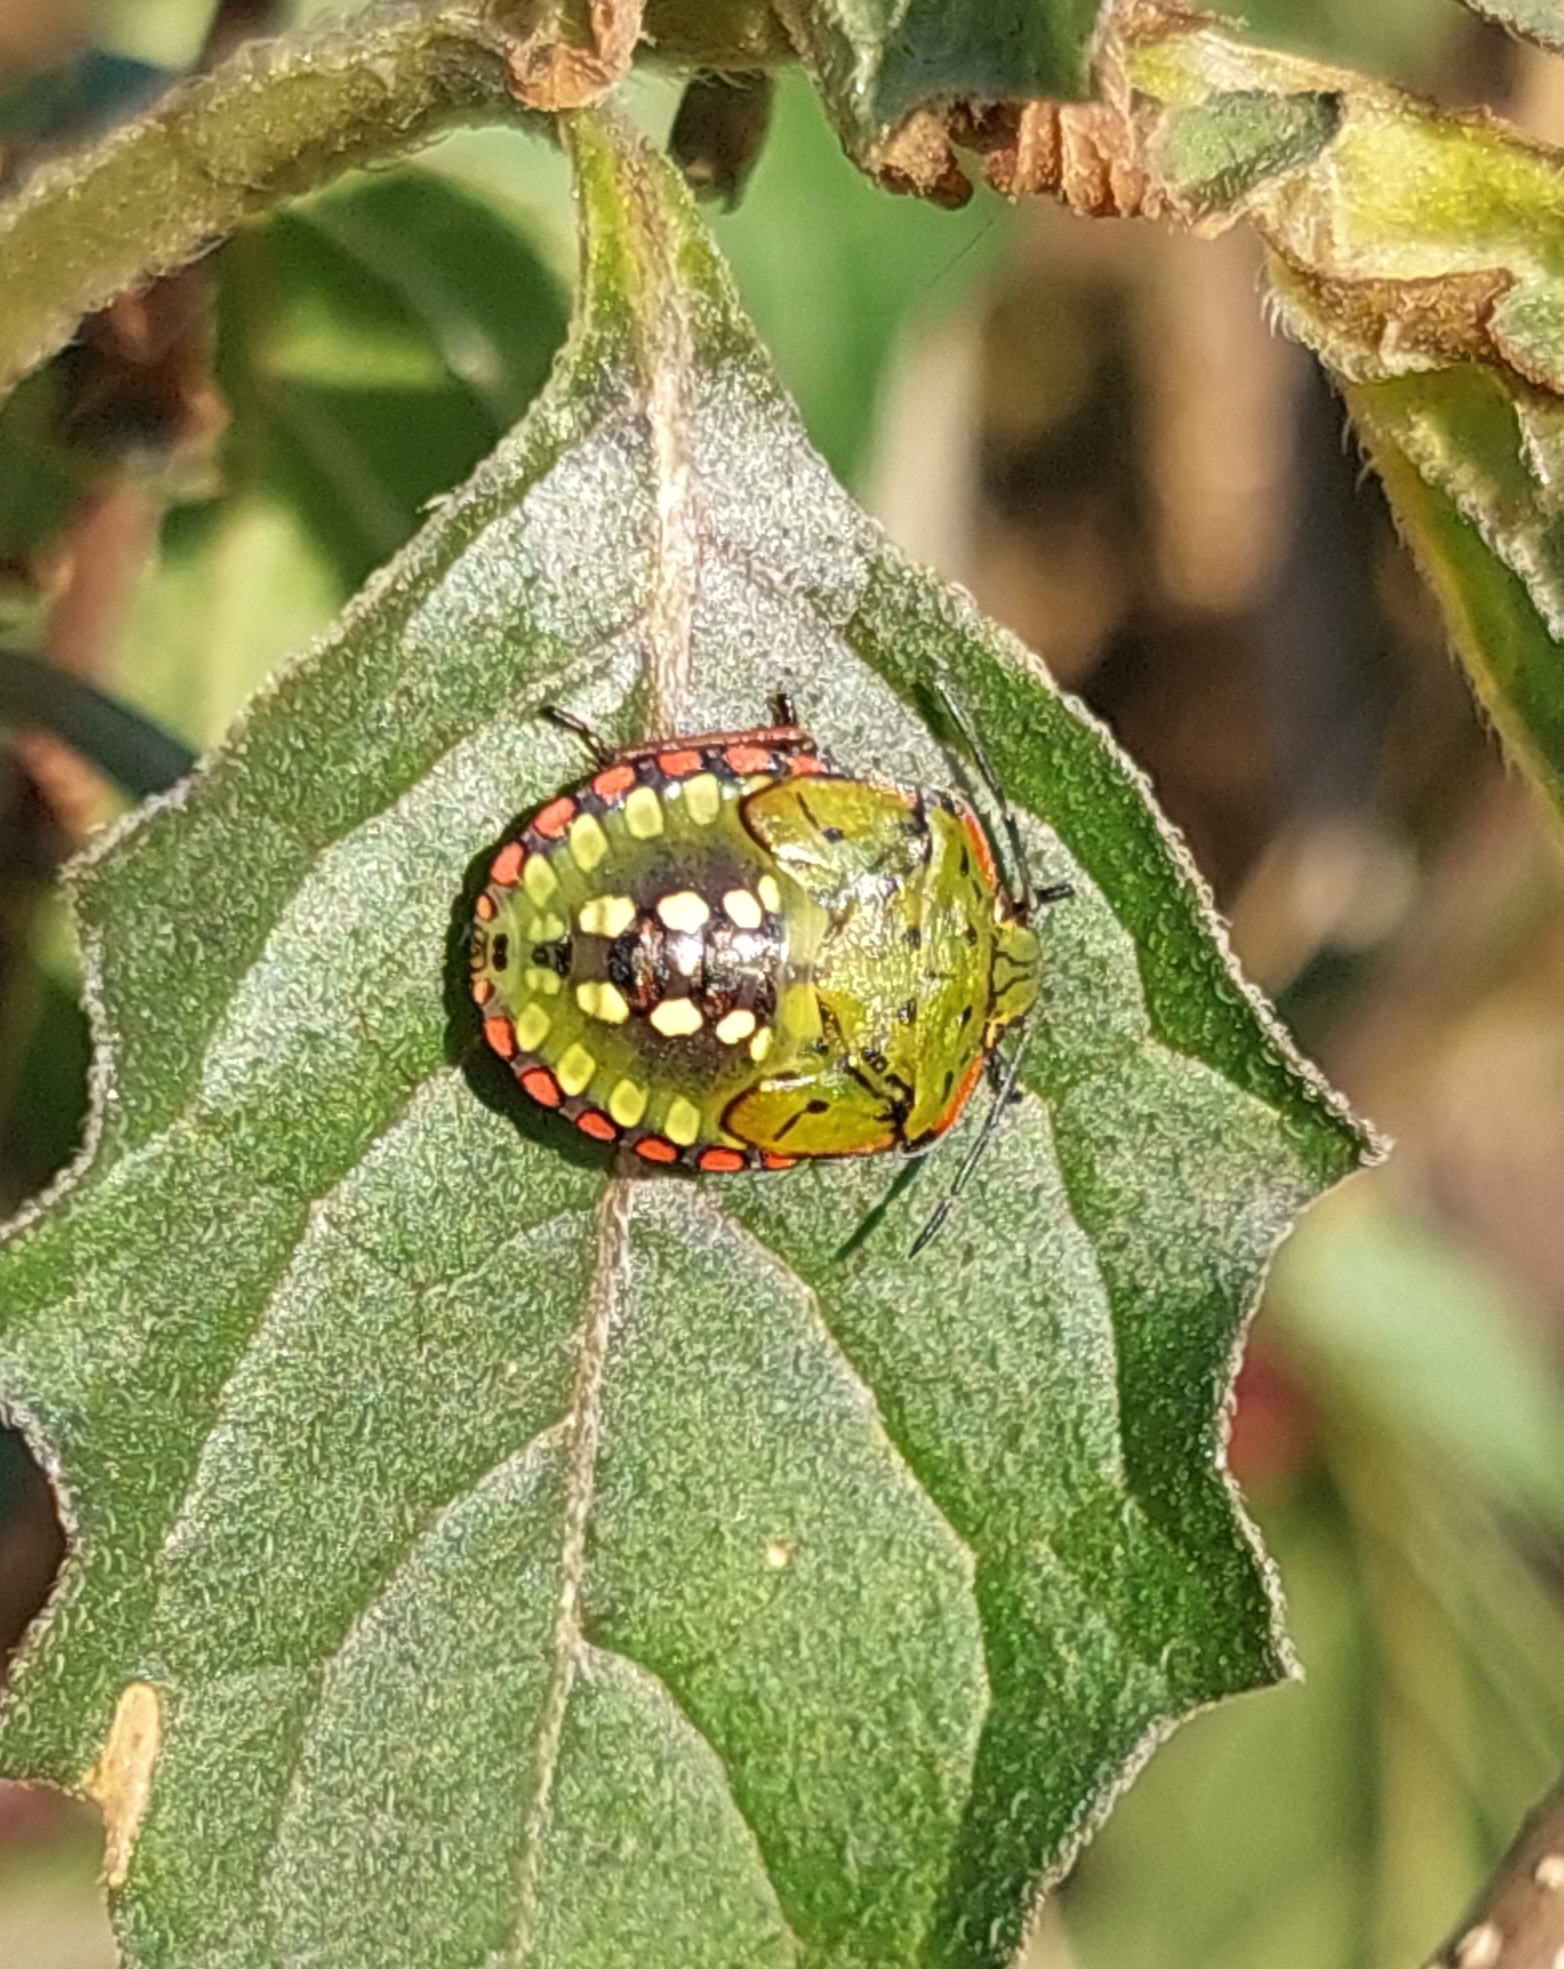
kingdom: Animalia
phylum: Arthropoda
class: Insecta
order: Hemiptera
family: Pentatomidae
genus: Nezara
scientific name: Nezara viridula
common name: Southern green stink bug
